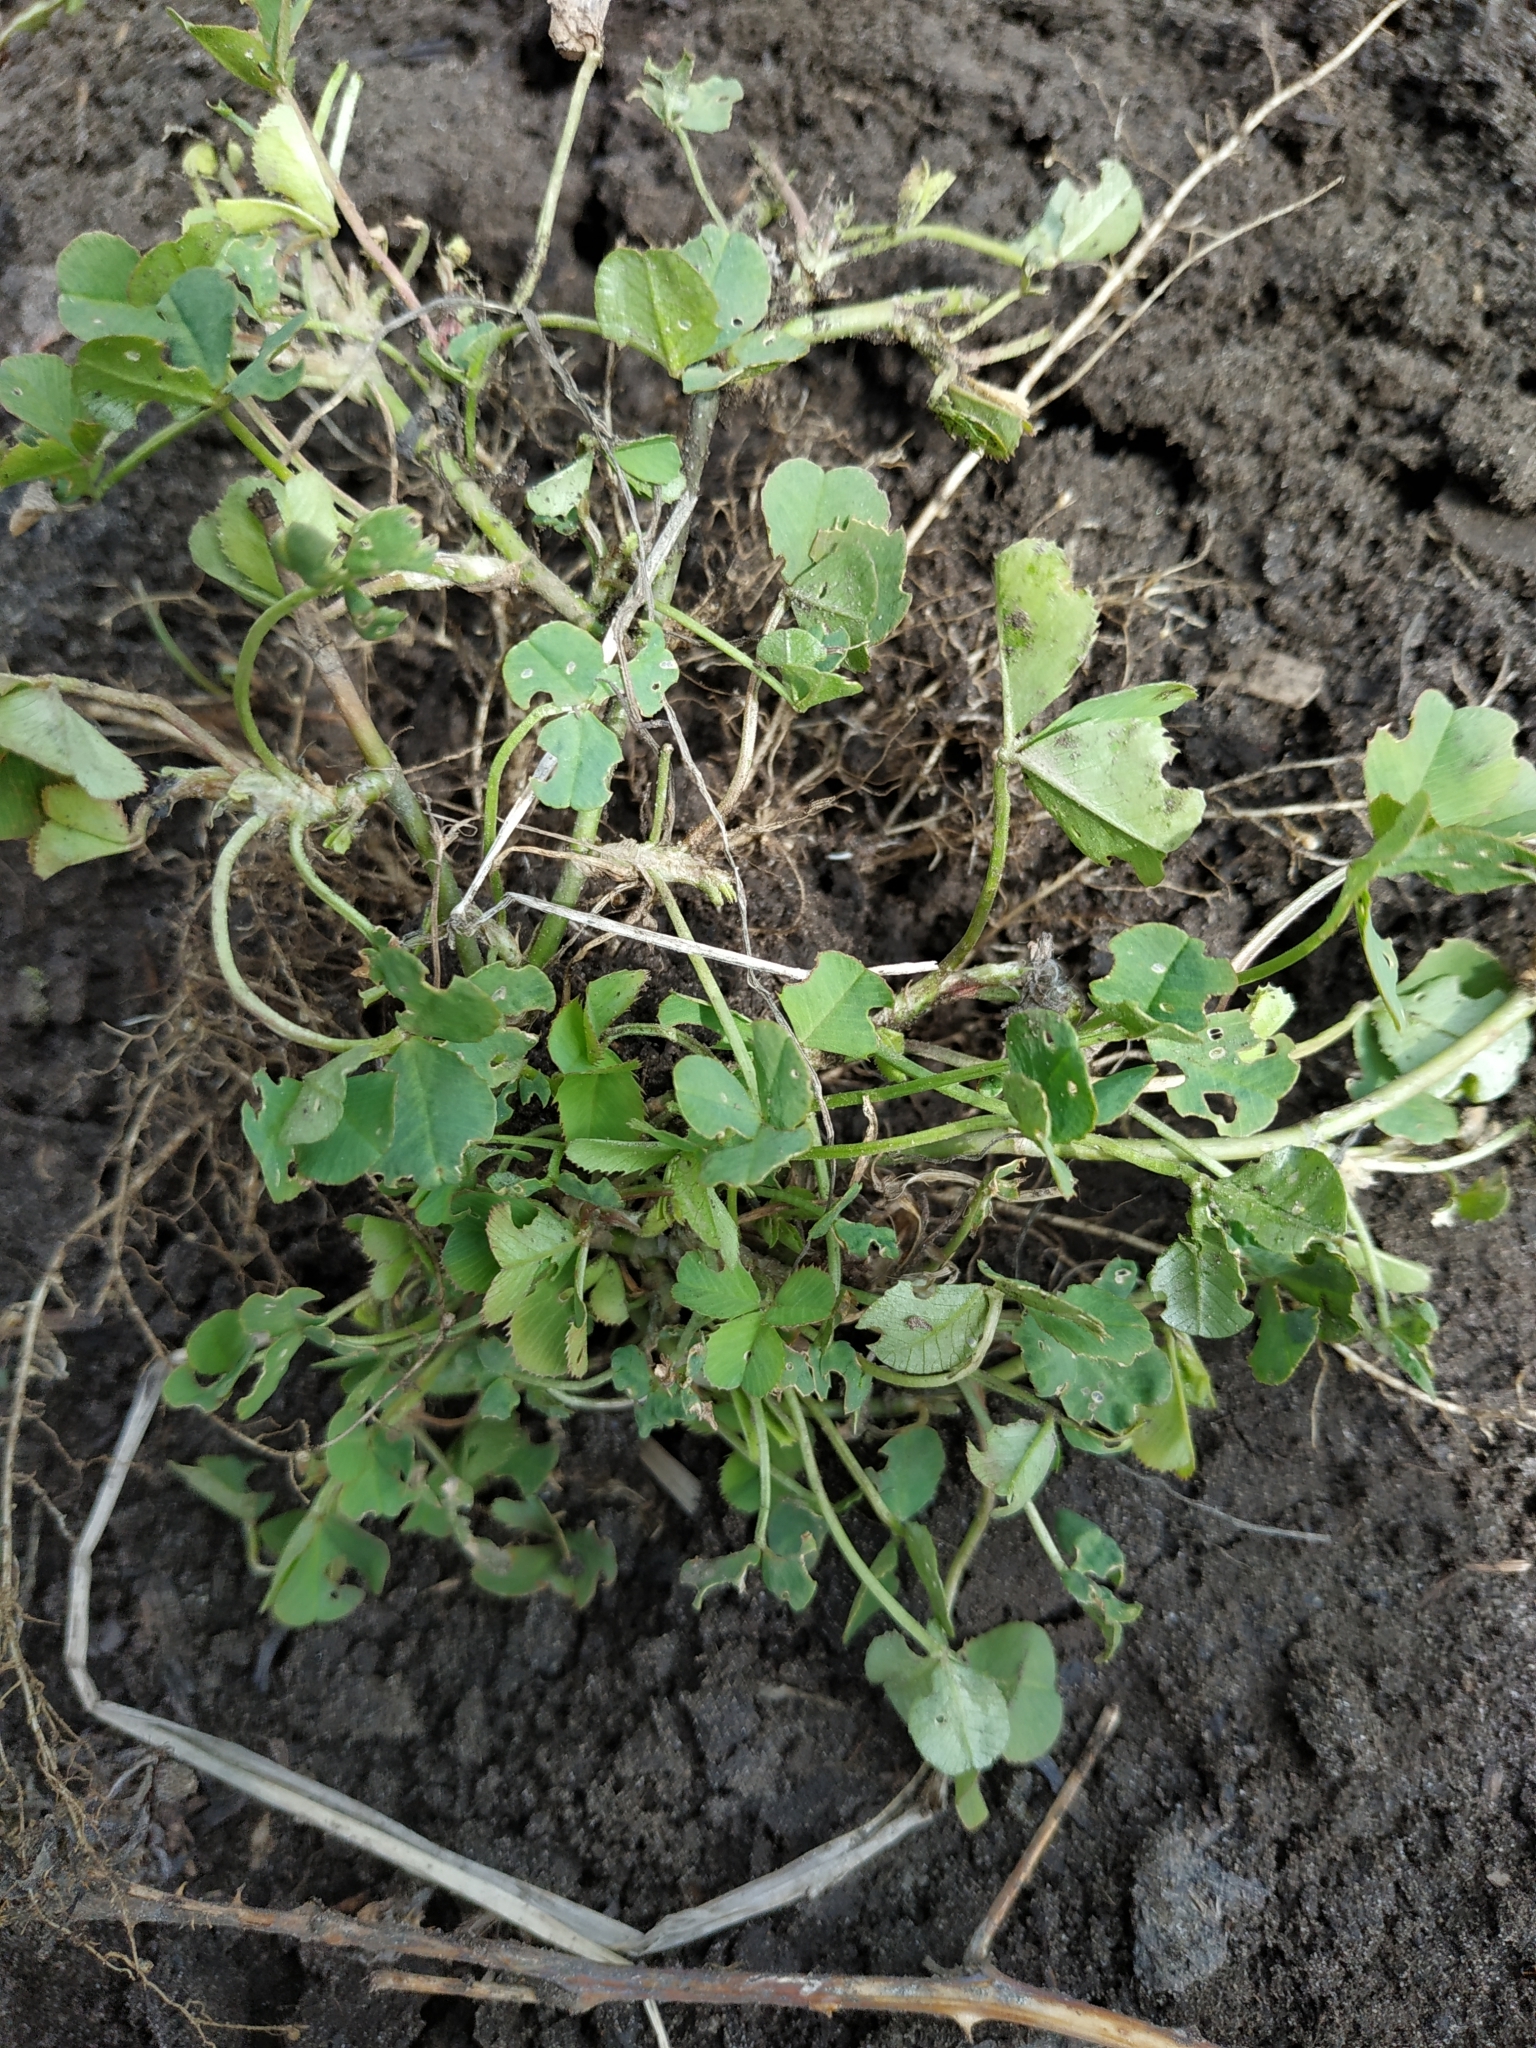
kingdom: Plantae
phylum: Tracheophyta
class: Magnoliopsida
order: Fabales
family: Fabaceae
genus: Medicago
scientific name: Medicago lupulina
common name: Black medick
